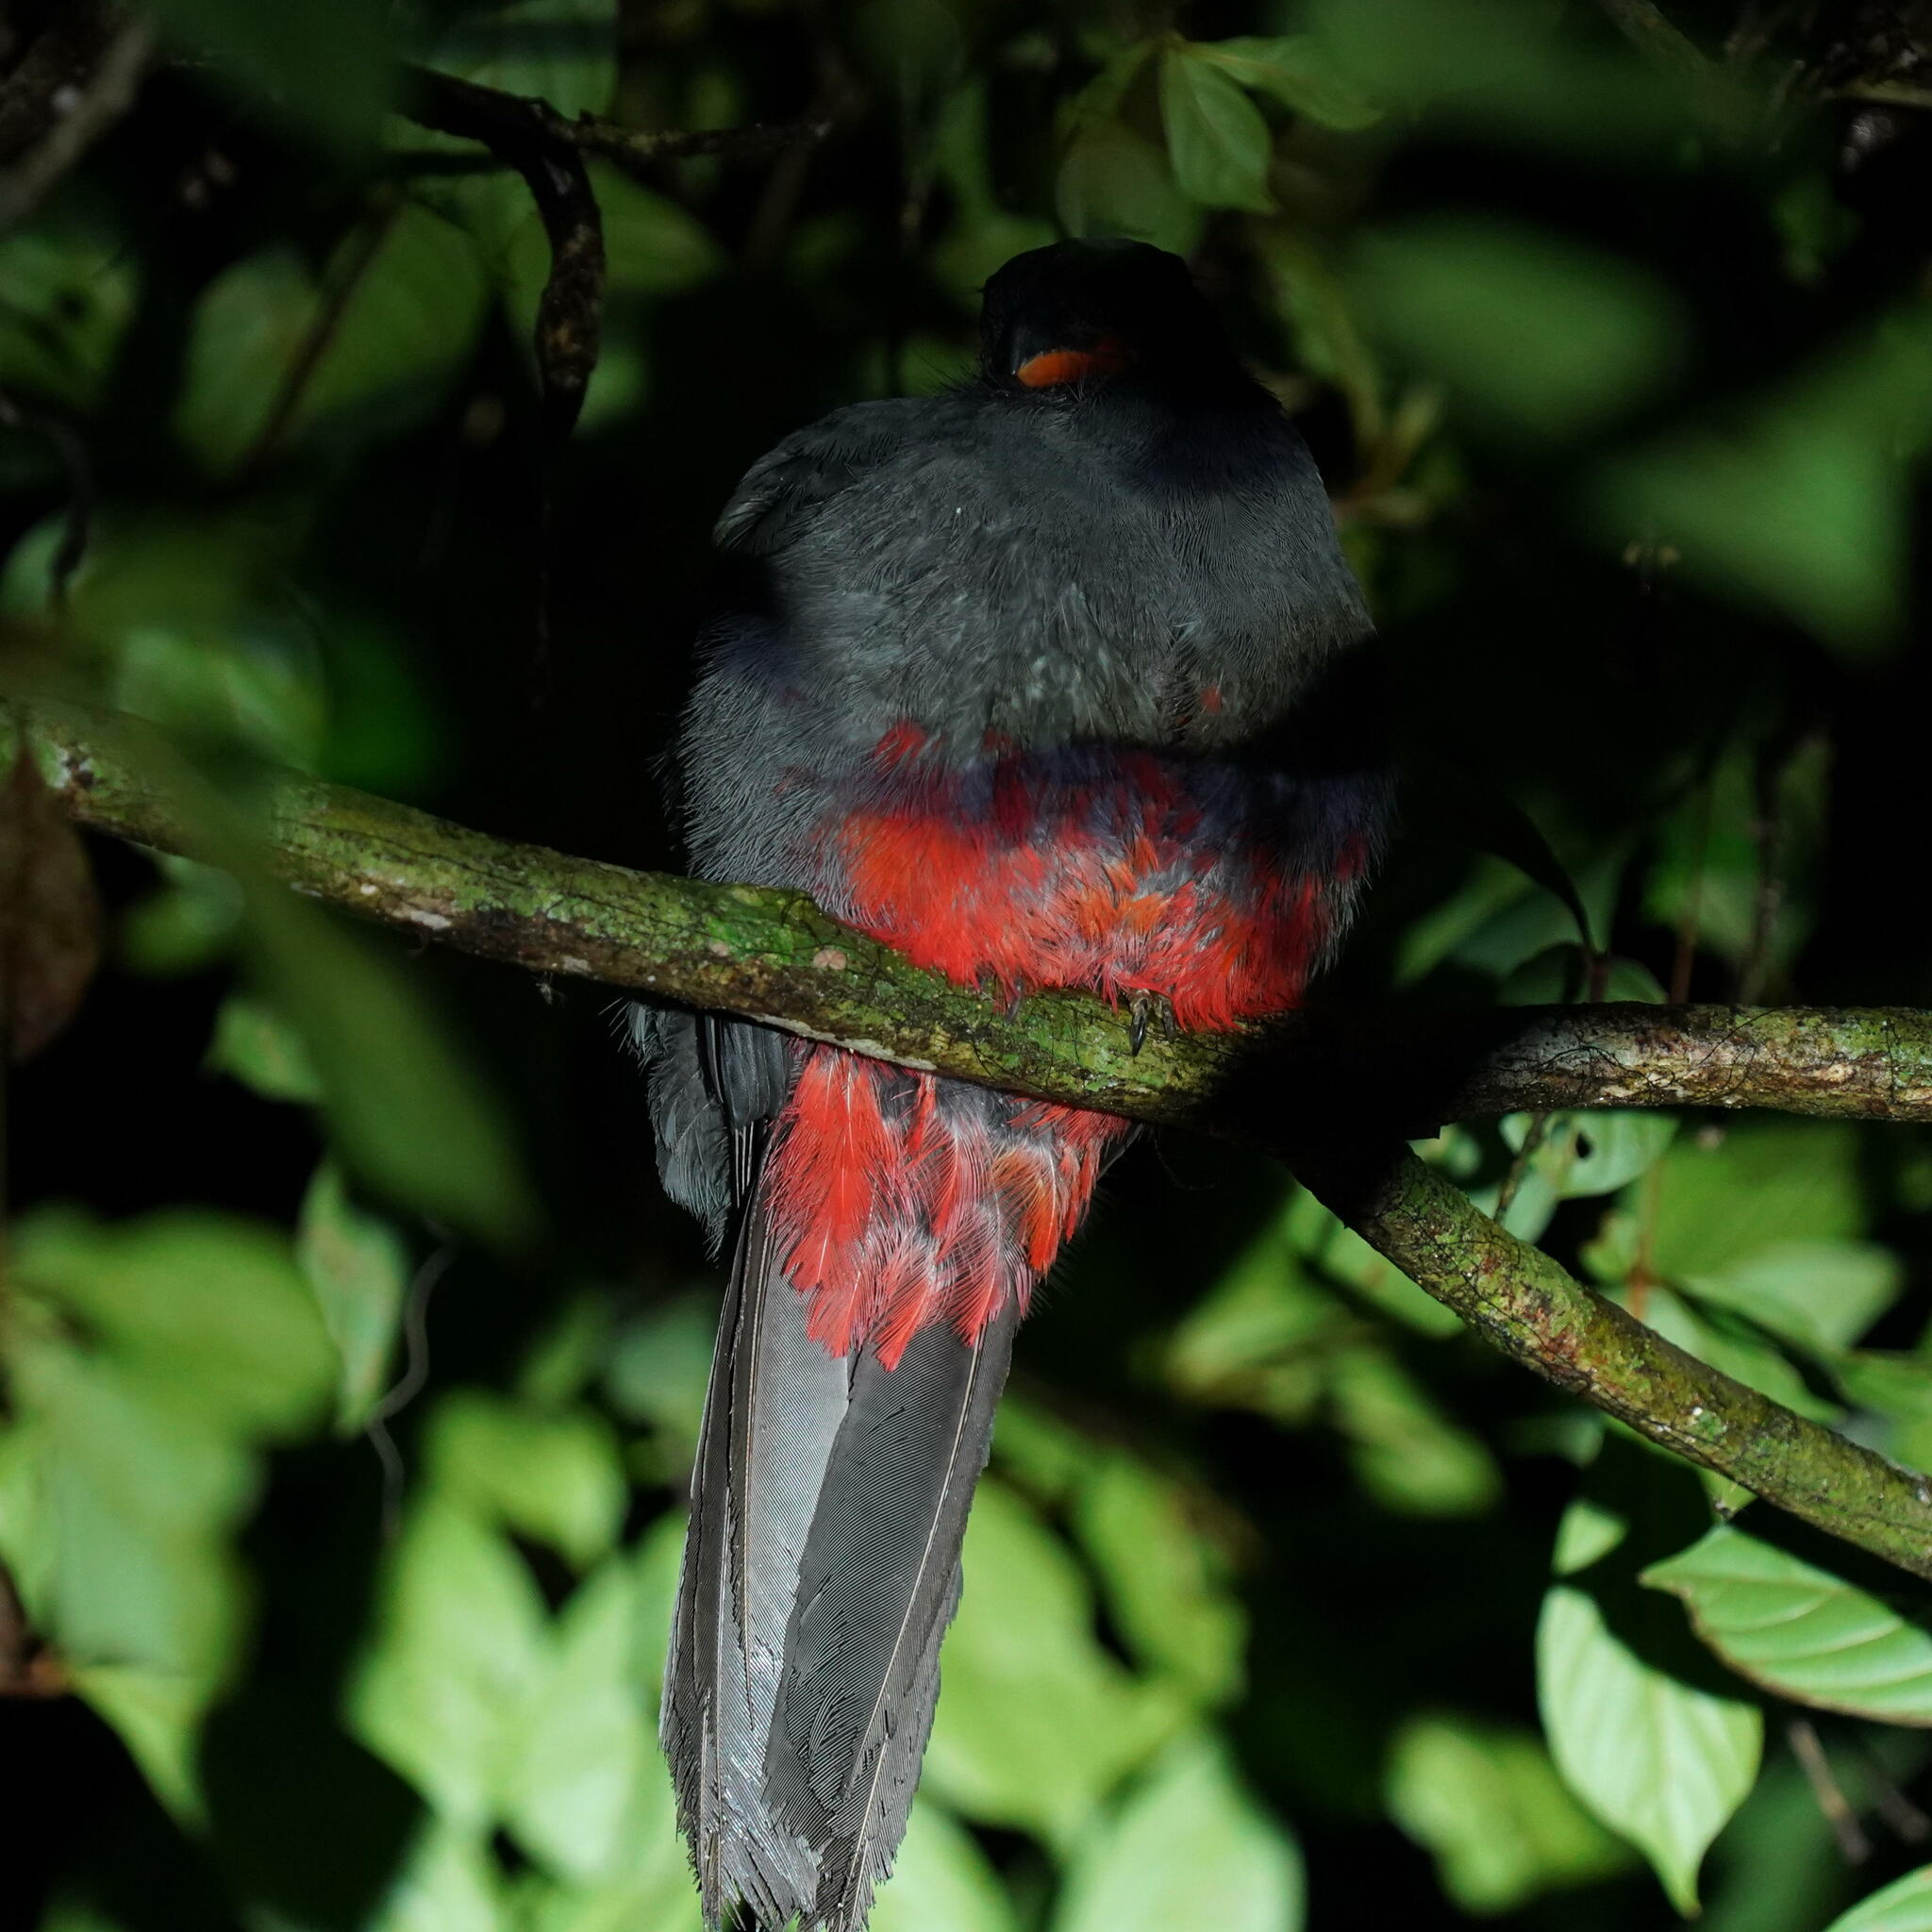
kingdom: Animalia
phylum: Chordata
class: Aves
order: Trogoniformes
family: Trogonidae
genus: Trogon
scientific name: Trogon massena
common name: Slaty-tailed trogon
